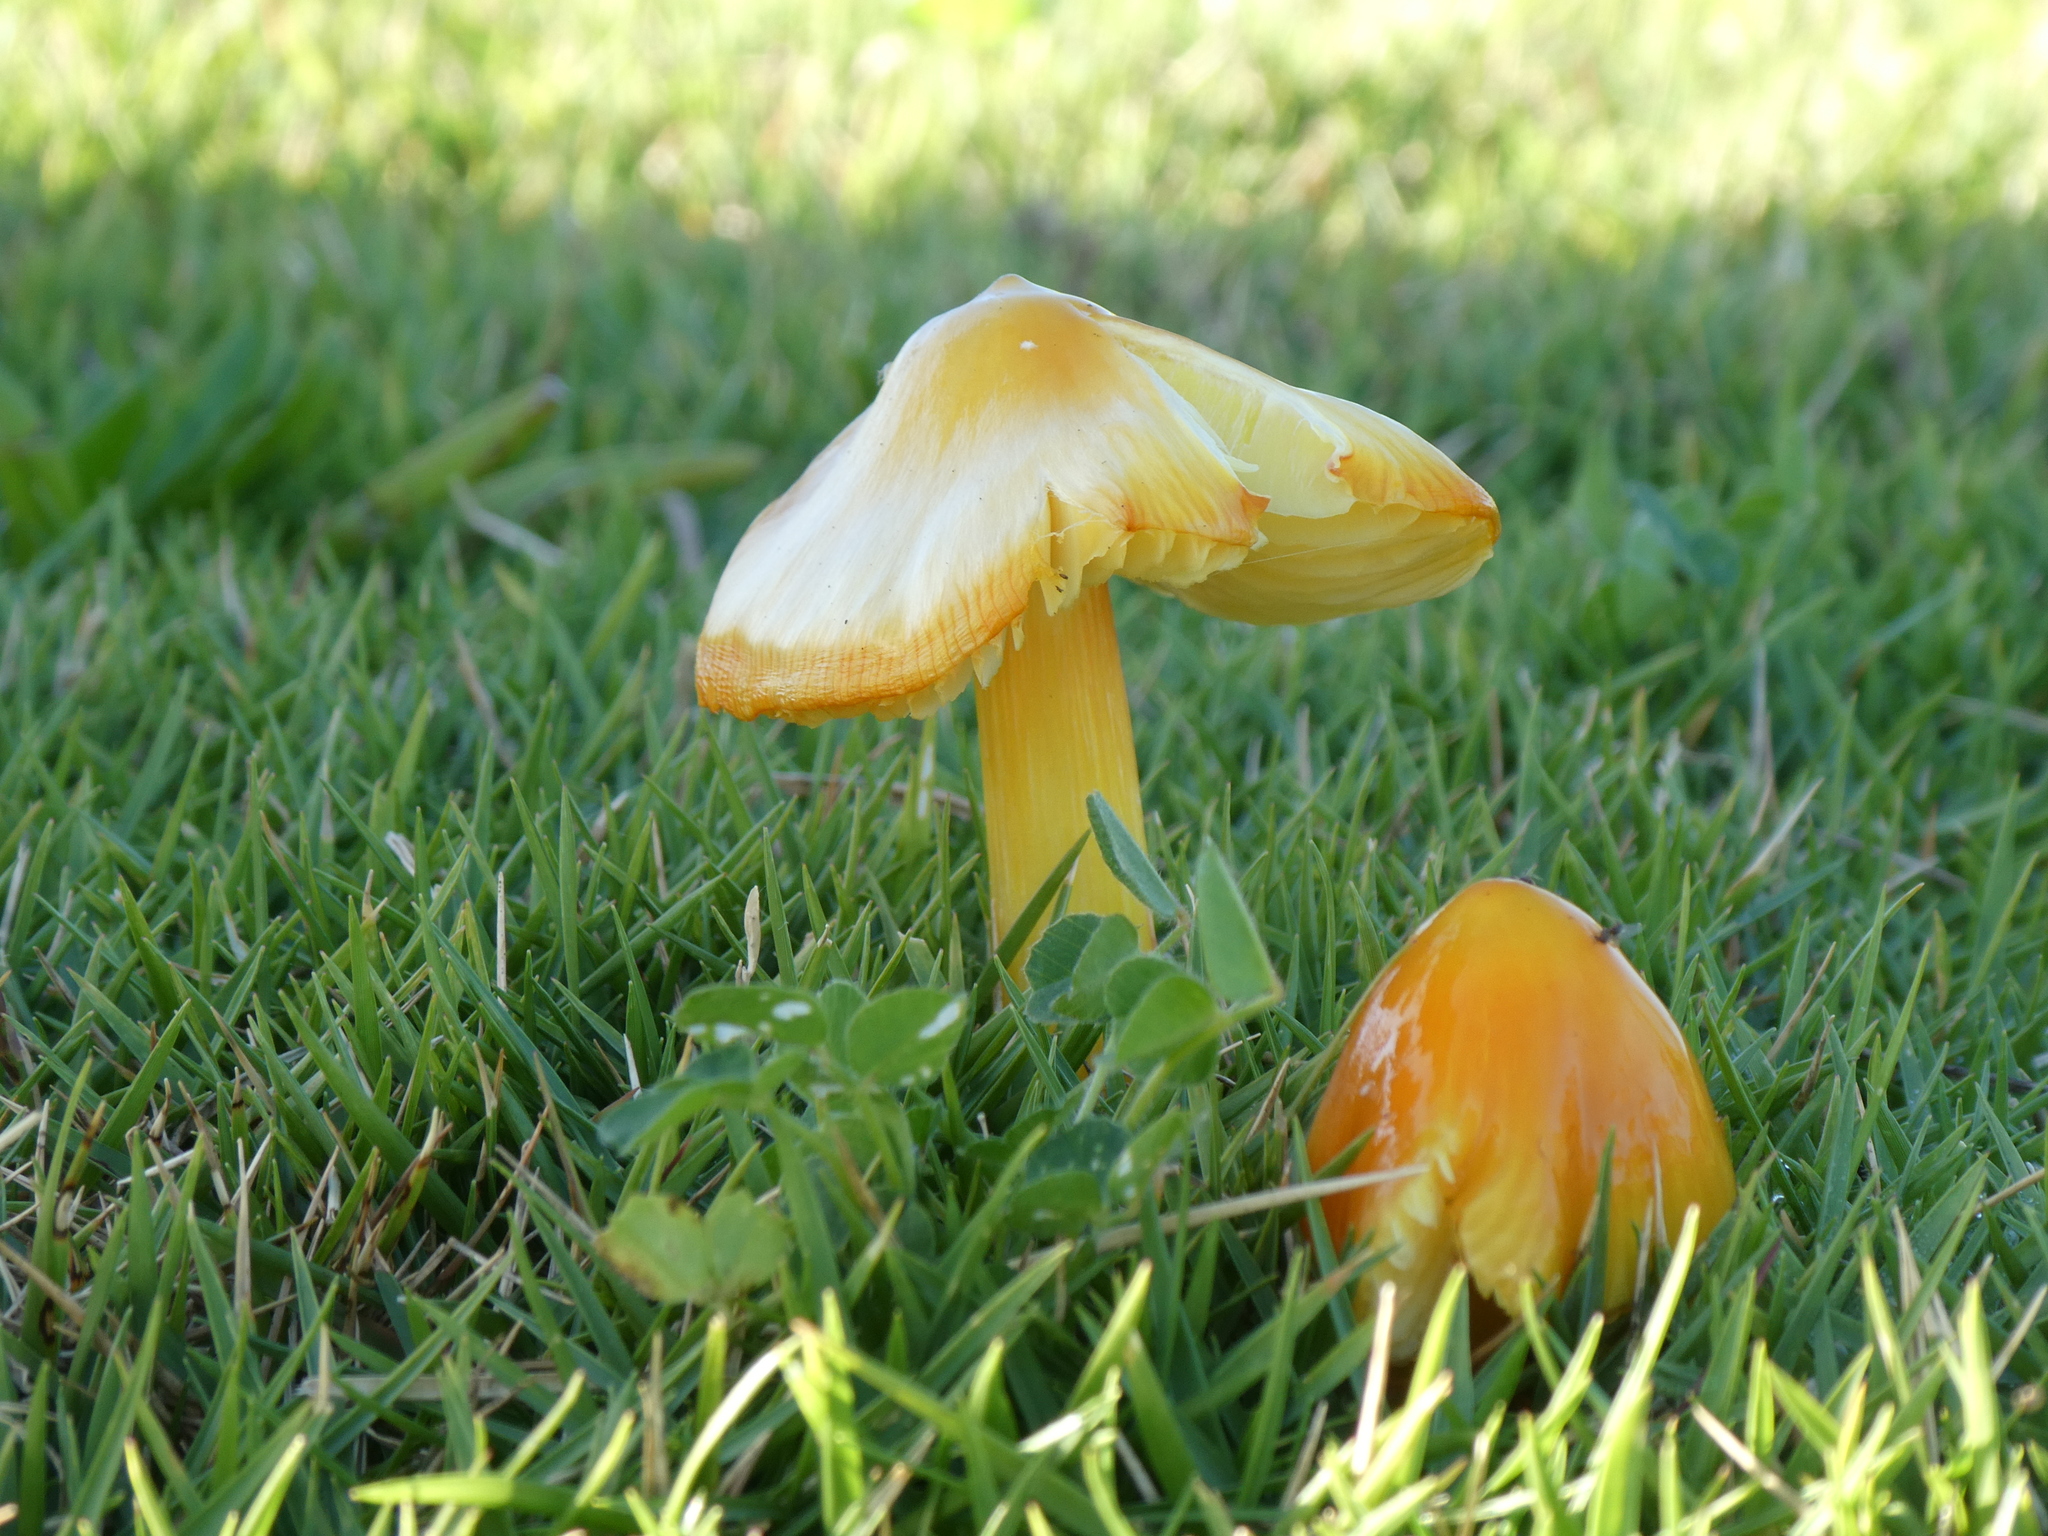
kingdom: Fungi
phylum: Basidiomycota
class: Agaricomycetes
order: Agaricales
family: Hygrophoraceae
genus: Hygrocybe
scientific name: Hygrocybe acutoconica
